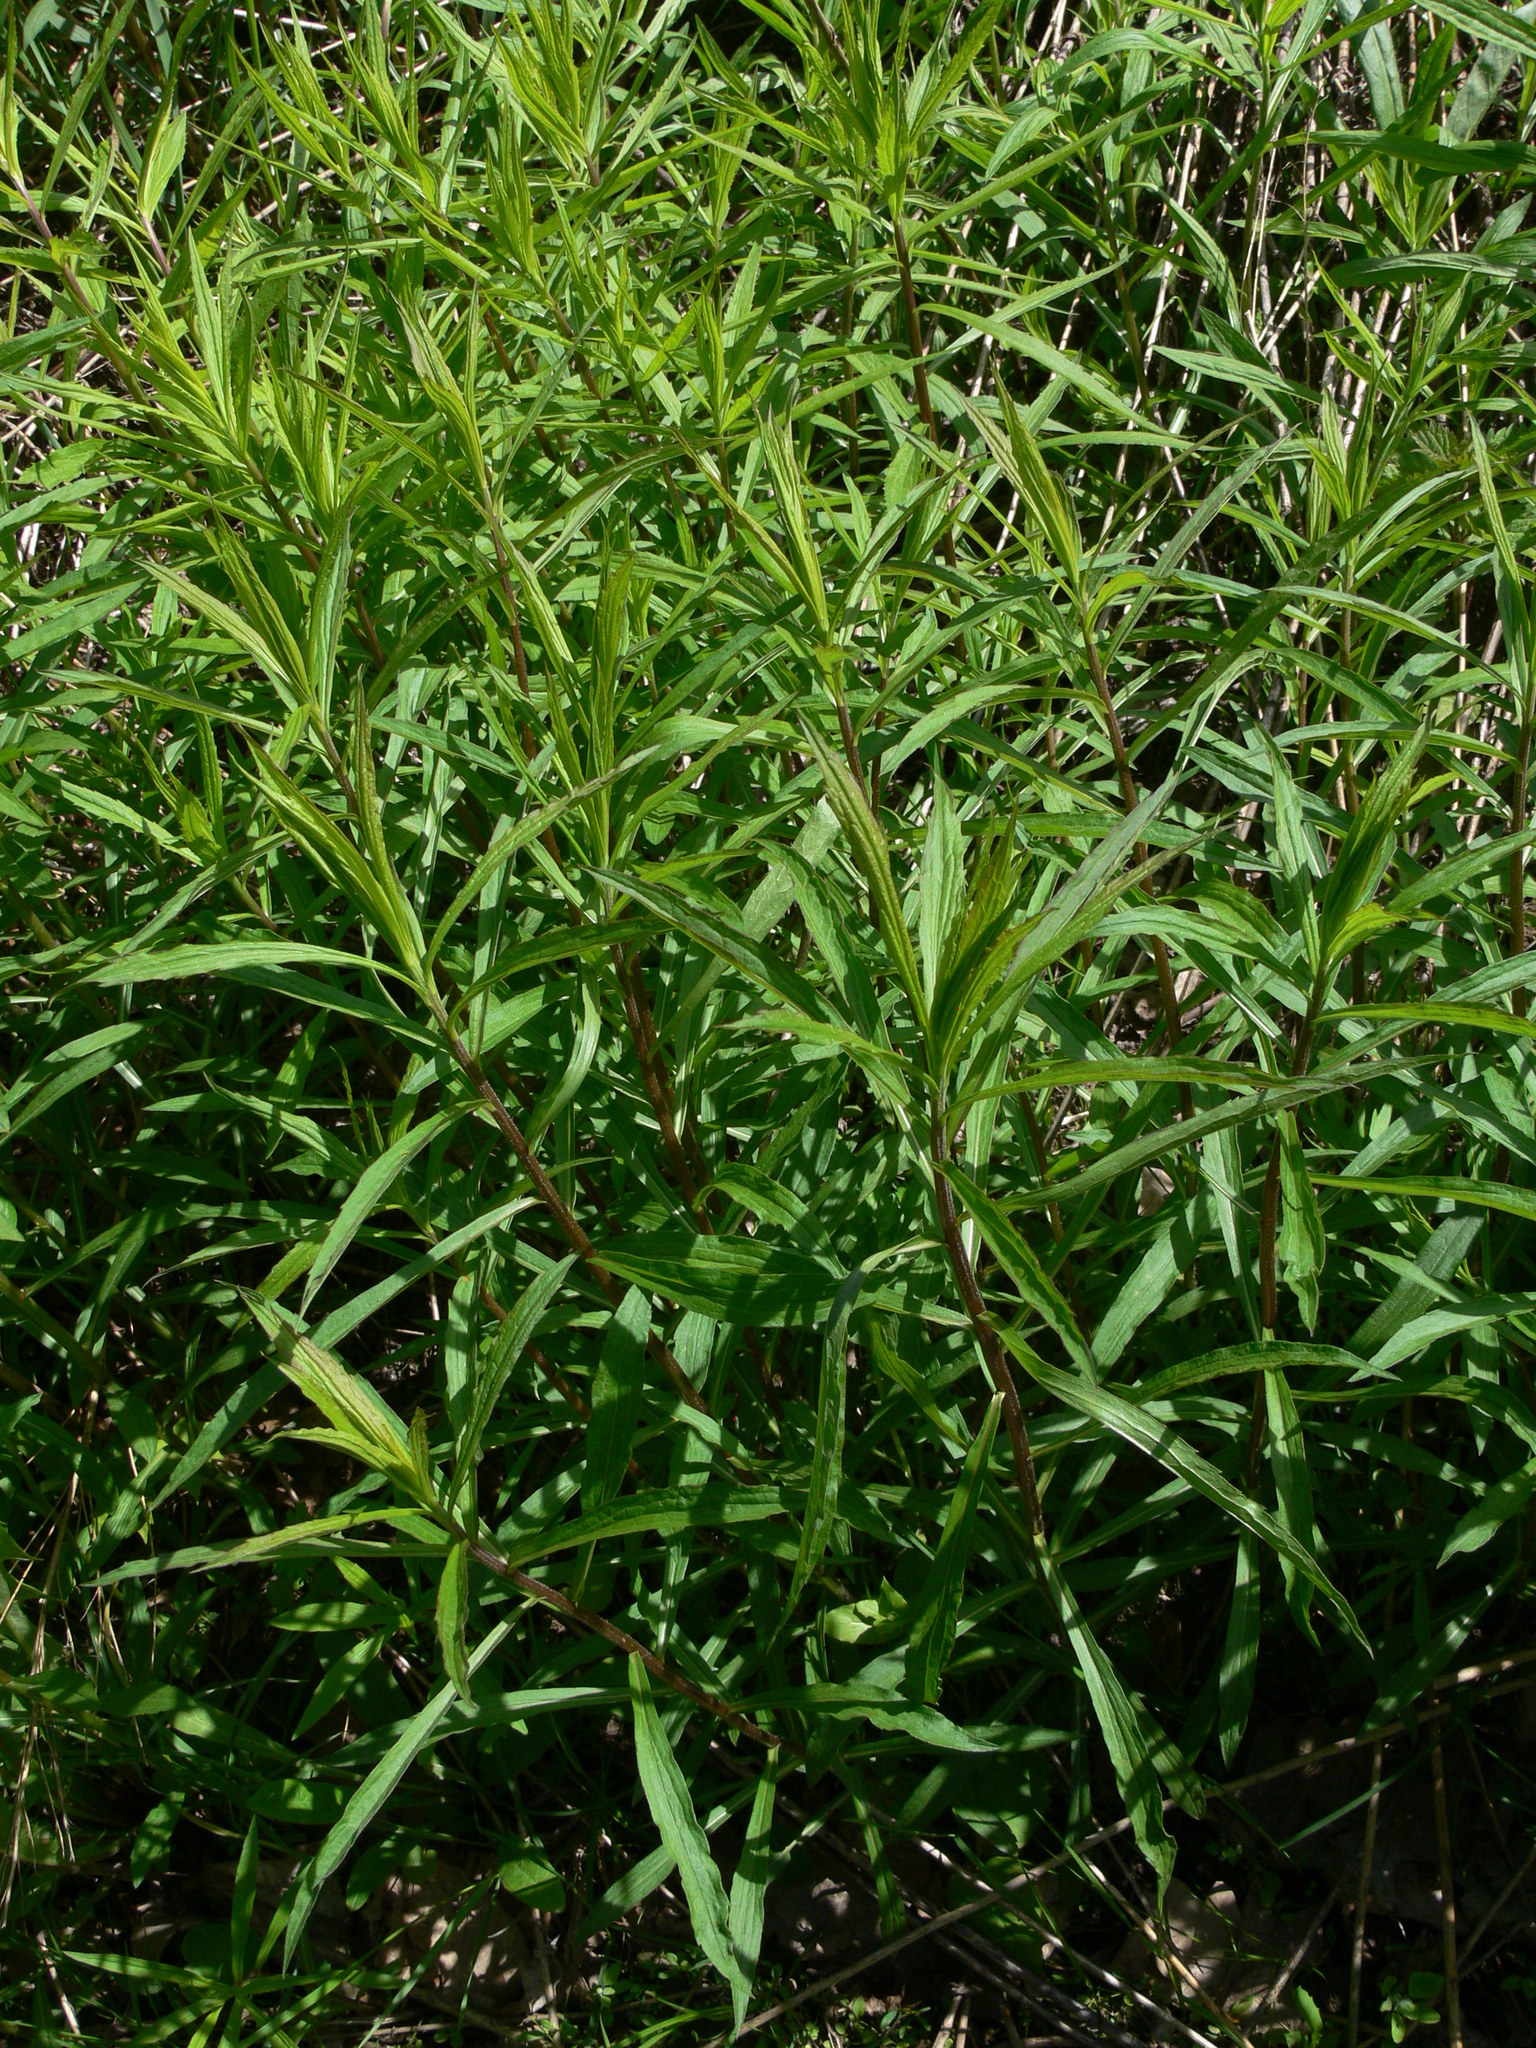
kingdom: Plantae
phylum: Tracheophyta
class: Magnoliopsida
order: Asterales
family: Asteraceae
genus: Solidago
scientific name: Solidago canadensis
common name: Canada goldenrod
